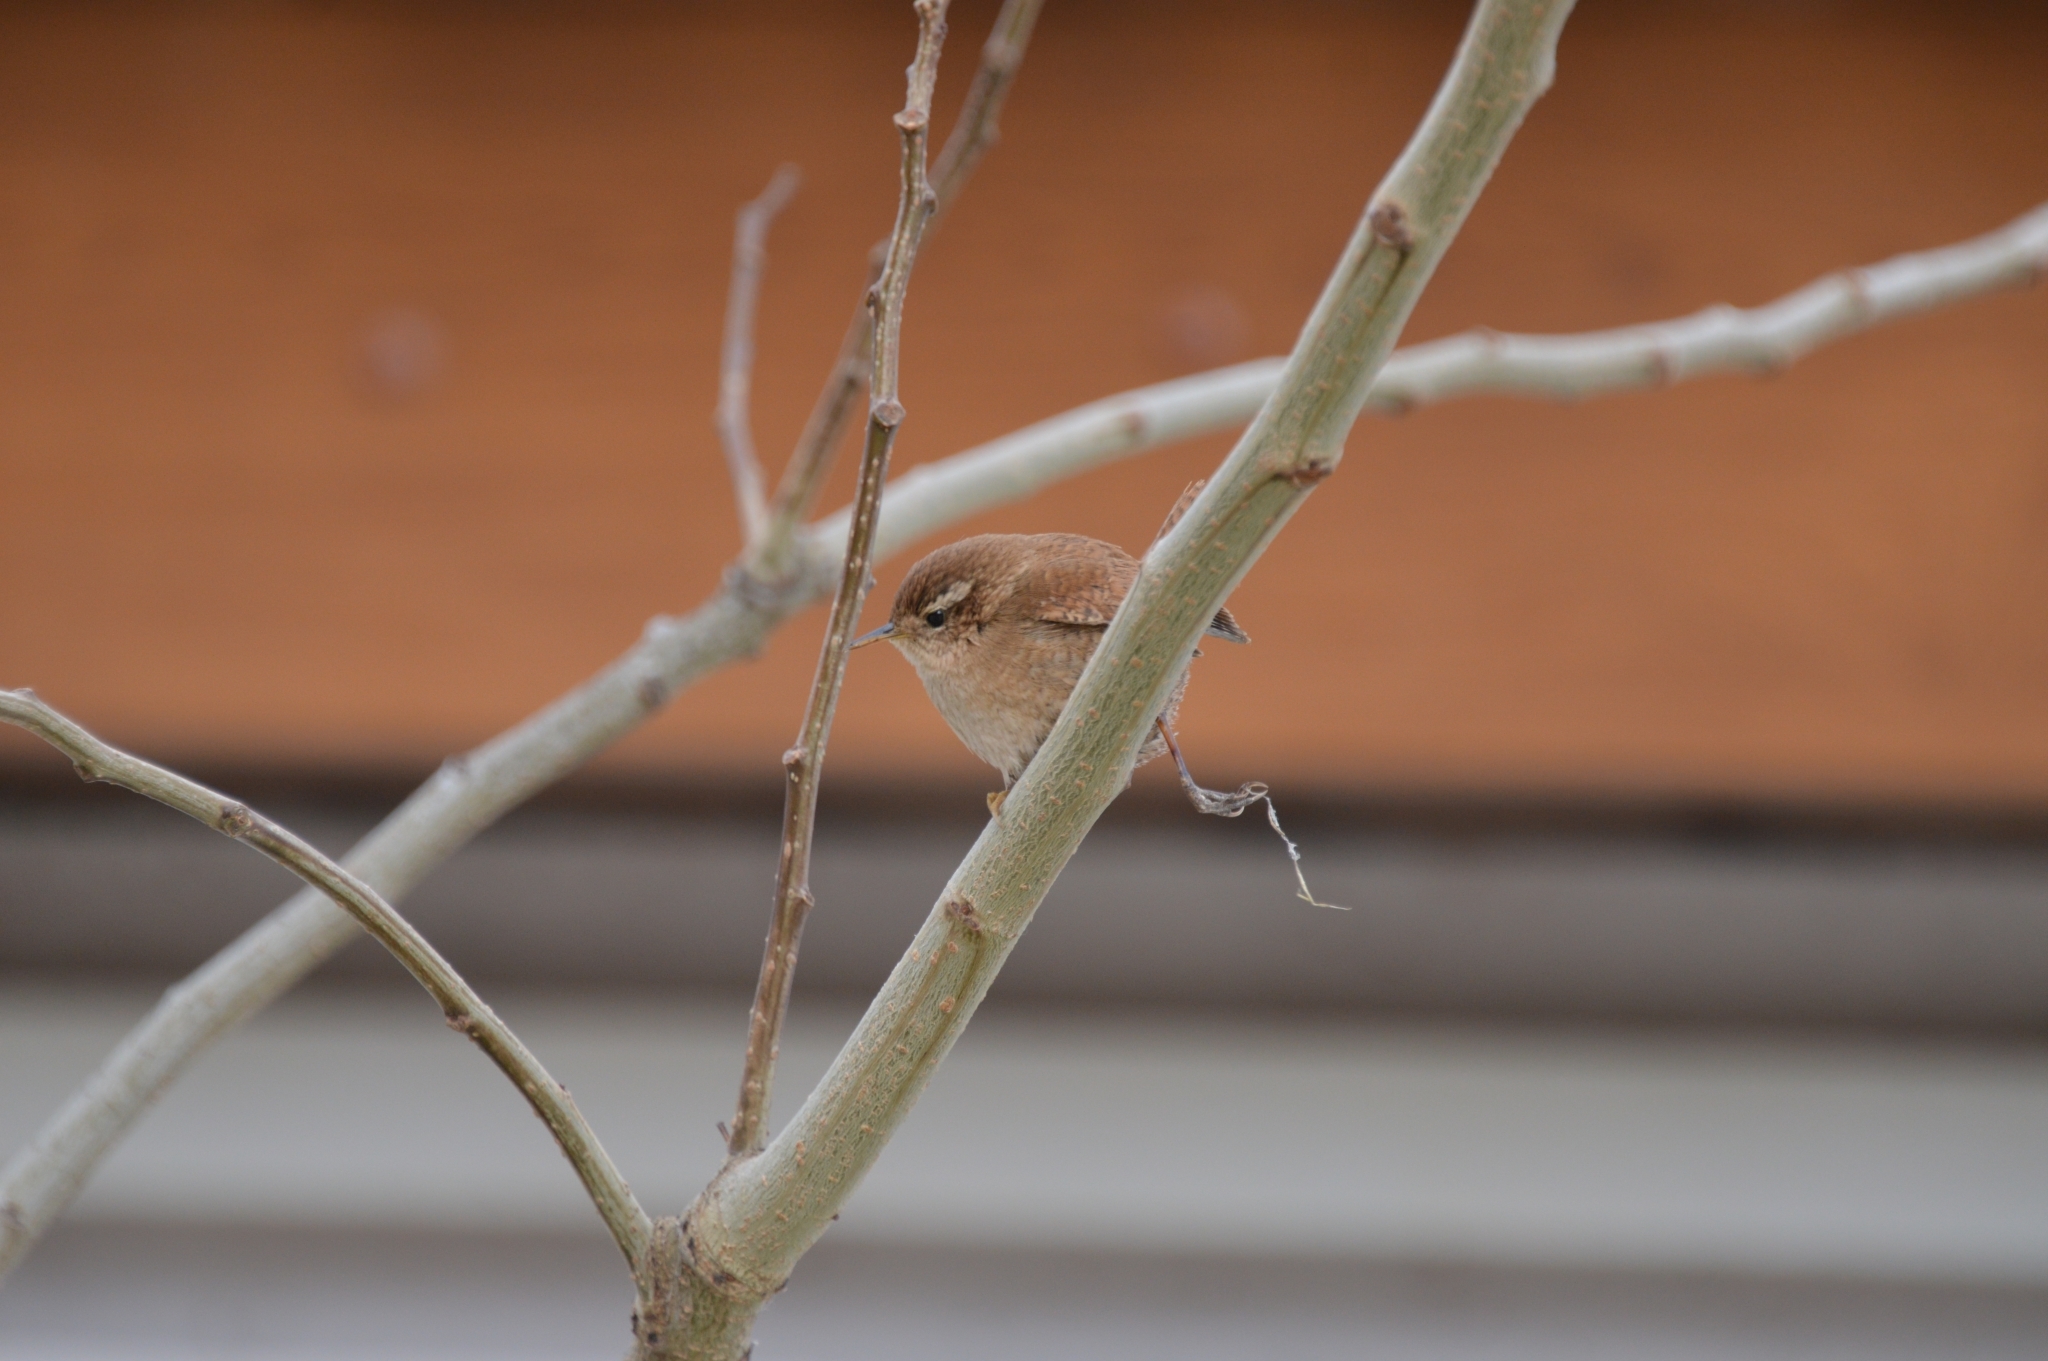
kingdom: Animalia
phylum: Chordata
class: Aves
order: Passeriformes
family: Troglodytidae
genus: Troglodytes
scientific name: Troglodytes troglodytes
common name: Eurasian wren
